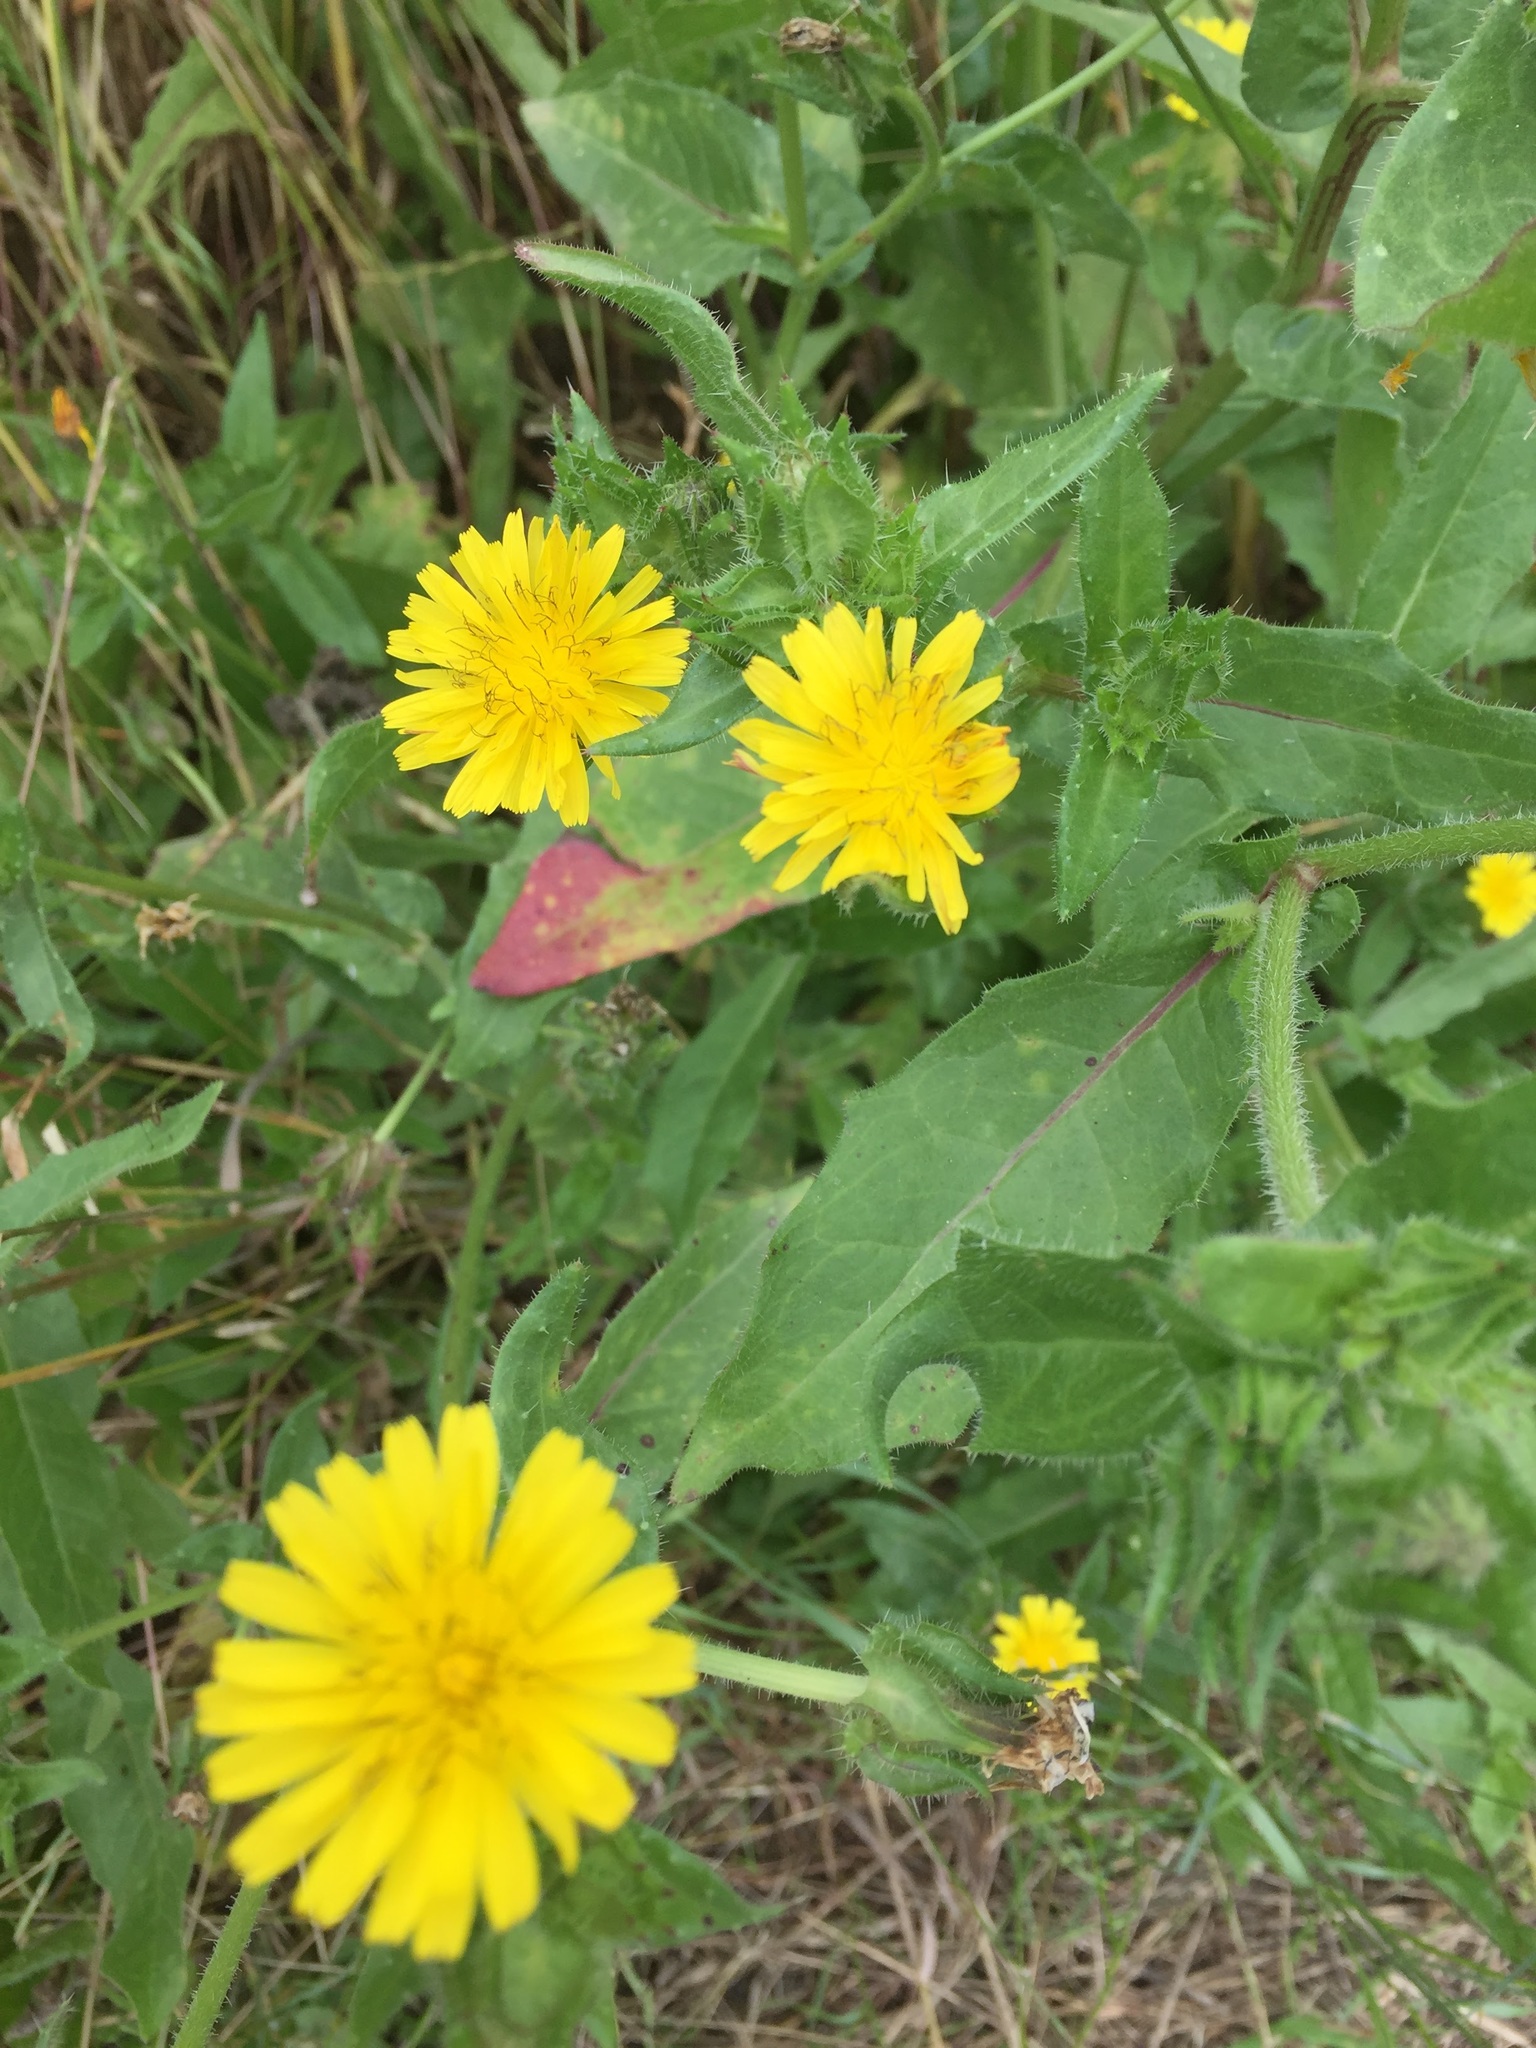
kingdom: Plantae
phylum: Tracheophyta
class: Magnoliopsida
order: Asterales
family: Asteraceae
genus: Helminthotheca
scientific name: Helminthotheca echioides
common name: Ox-tongue
